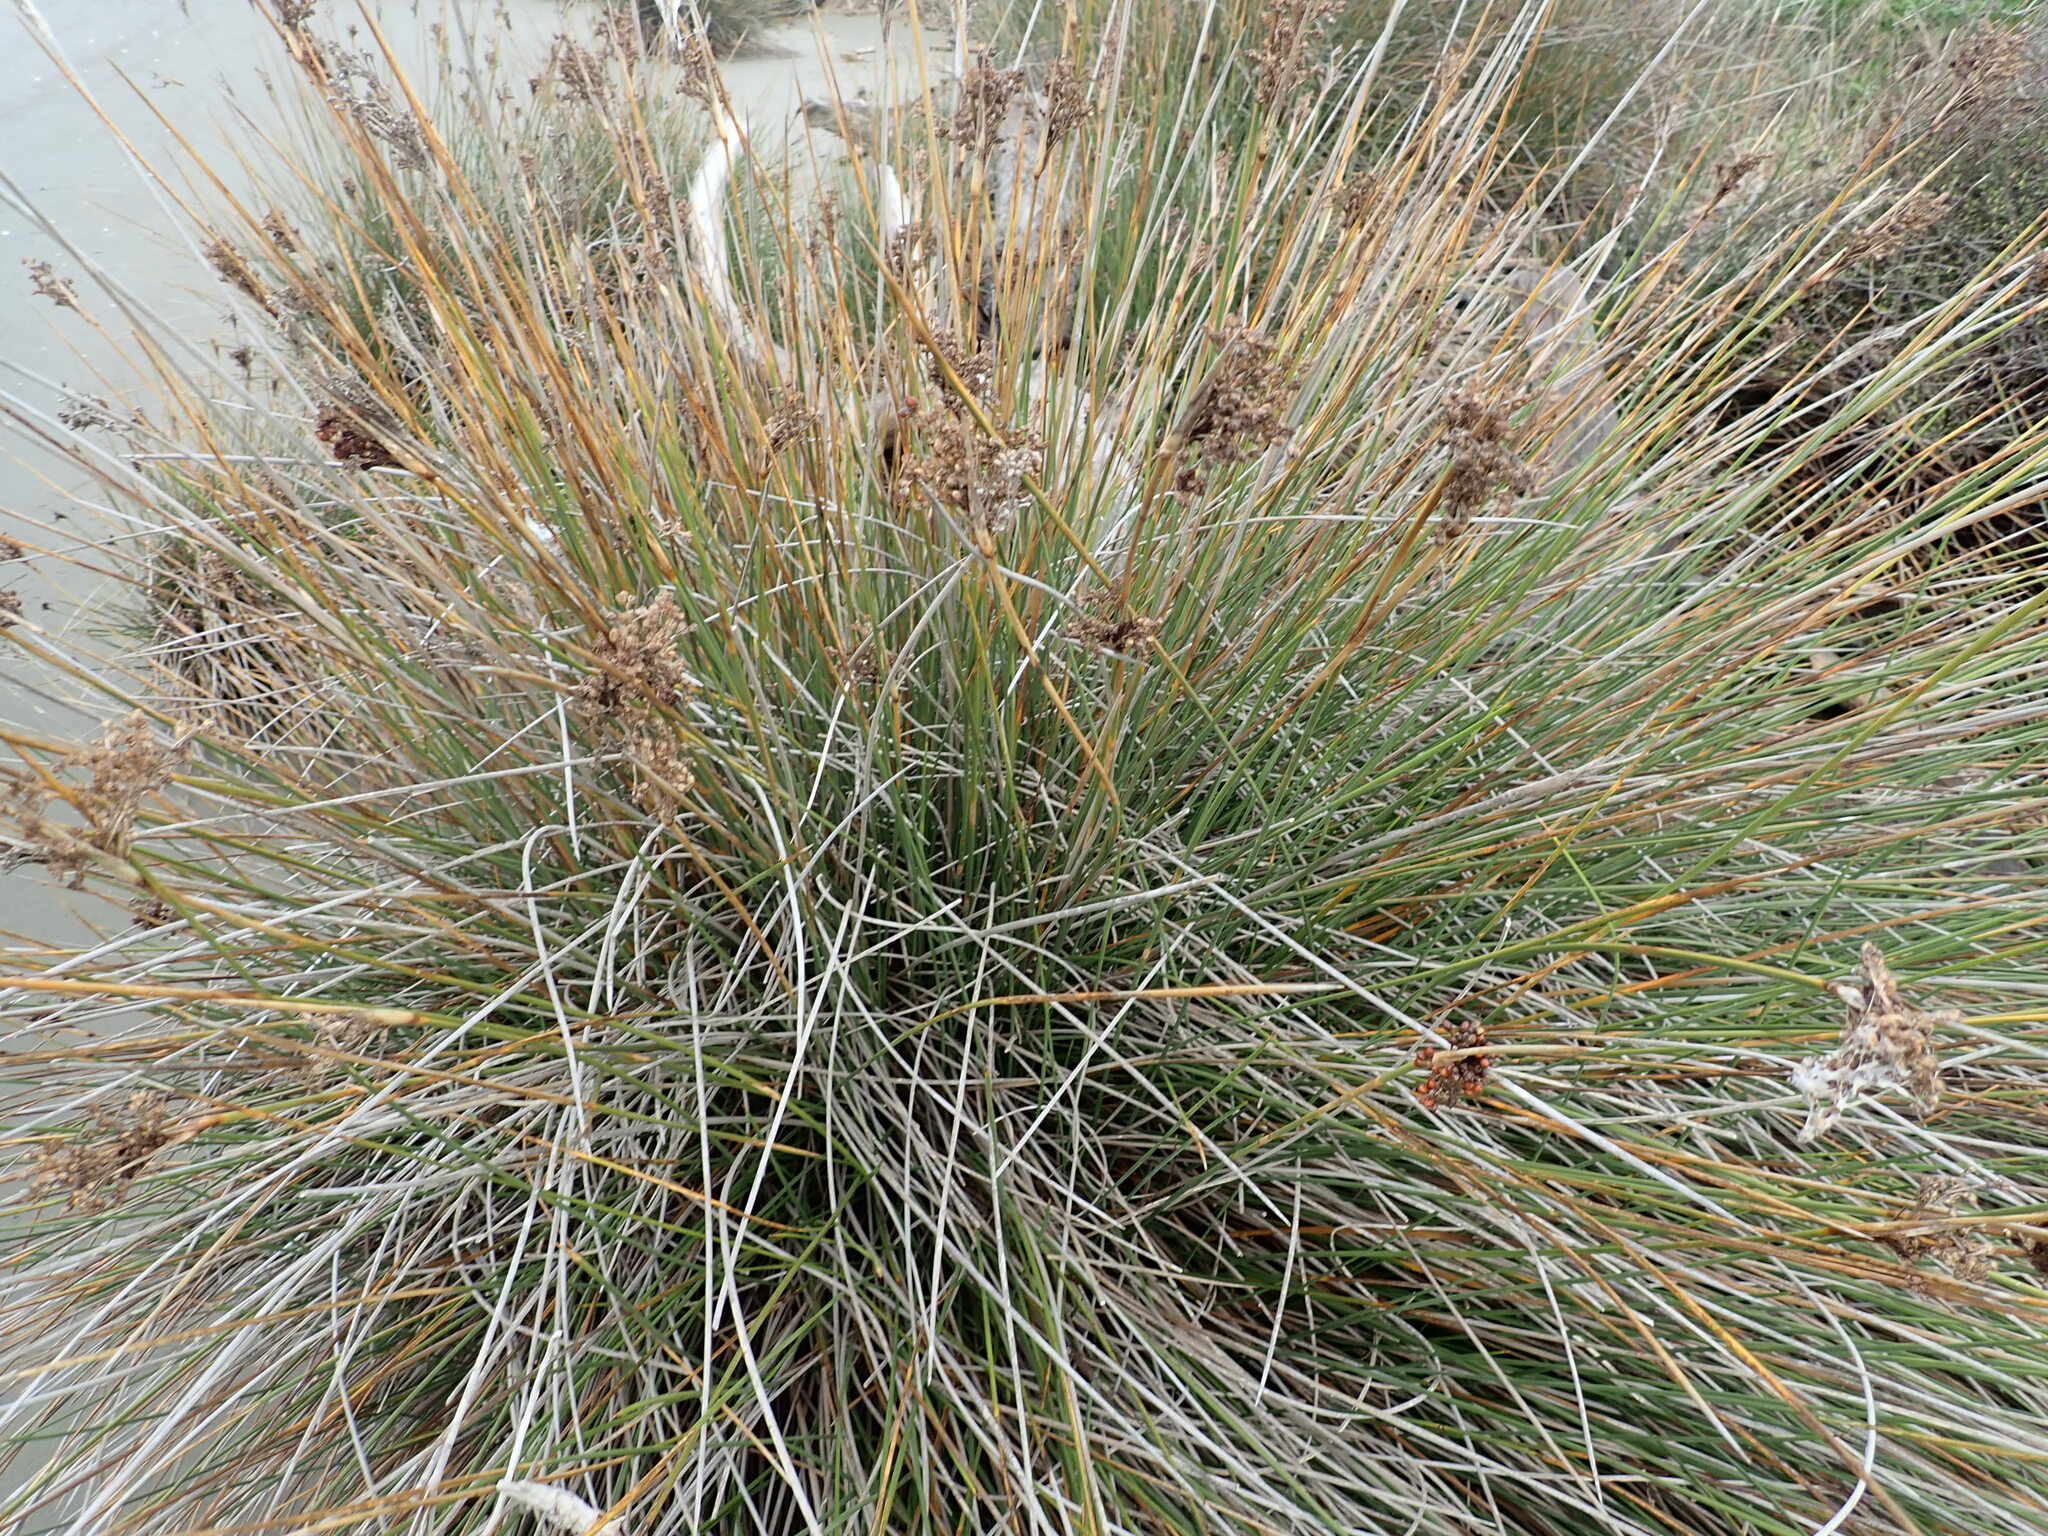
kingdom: Plantae
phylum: Tracheophyta
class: Liliopsida
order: Poales
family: Juncaceae
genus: Juncus
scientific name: Juncus acutus
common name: Sharp rush
